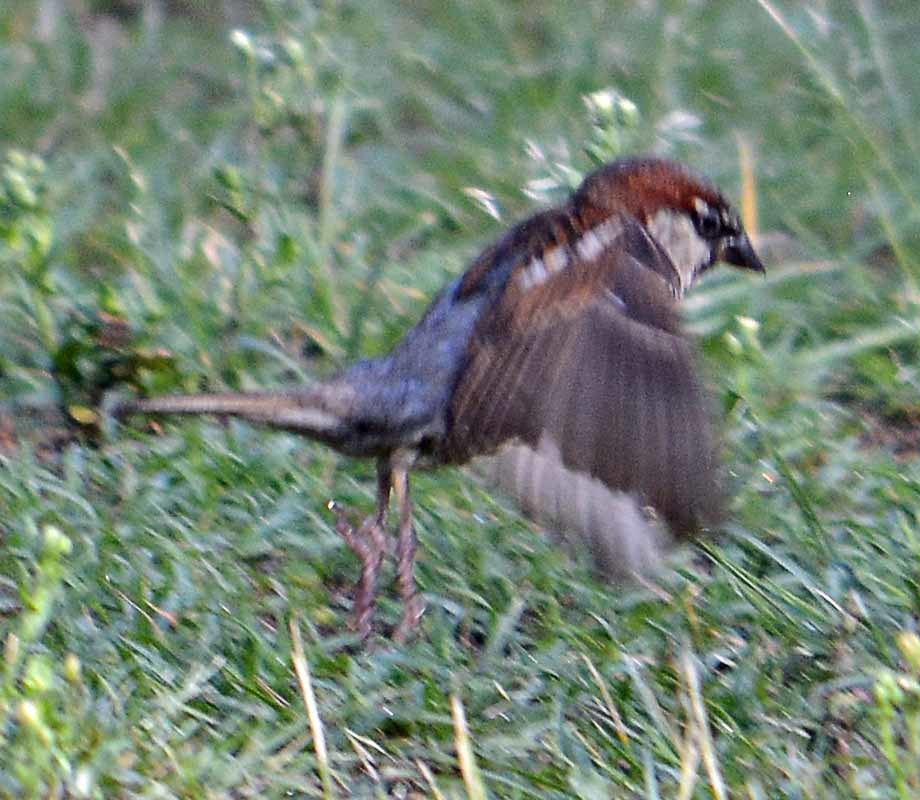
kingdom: Animalia
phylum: Chordata
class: Aves
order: Passeriformes
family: Passeridae
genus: Passer
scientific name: Passer domesticus
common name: House sparrow
